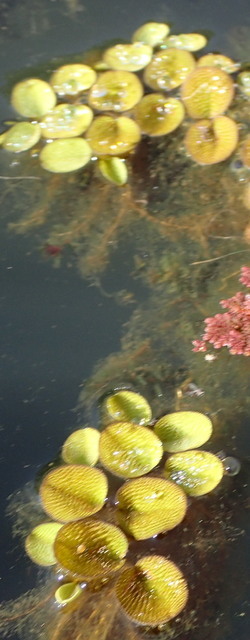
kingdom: Plantae
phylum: Tracheophyta
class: Polypodiopsida
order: Salviniales
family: Salviniaceae
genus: Salvinia
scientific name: Salvinia minima
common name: Water spangles
